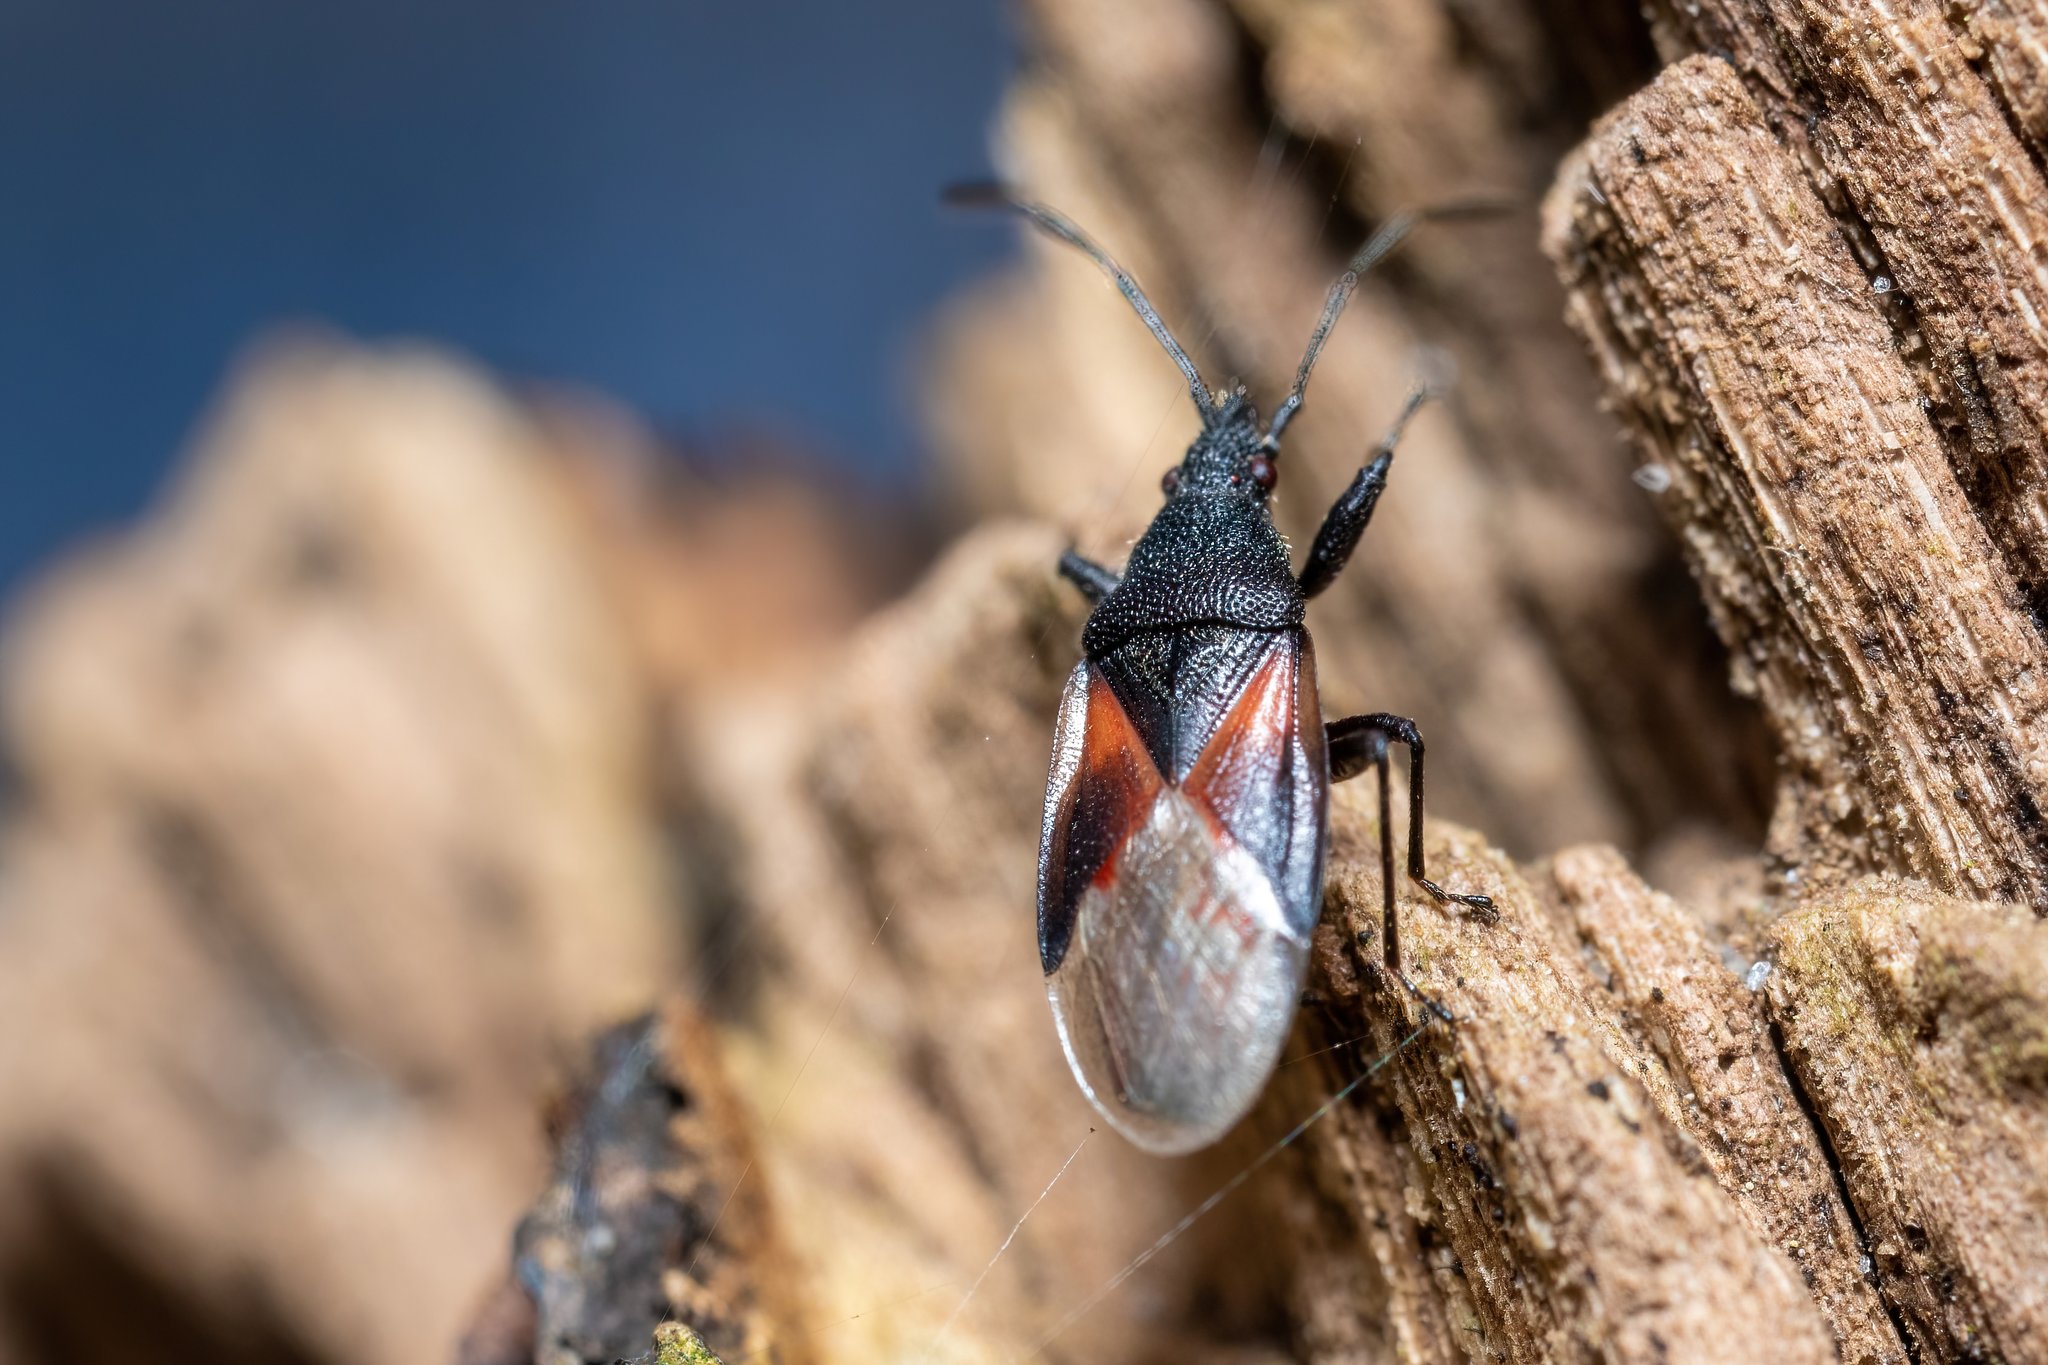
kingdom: Animalia
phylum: Arthropoda
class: Insecta
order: Hemiptera
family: Oxycarenidae
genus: Oxycarenus
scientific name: Oxycarenus lavaterae
